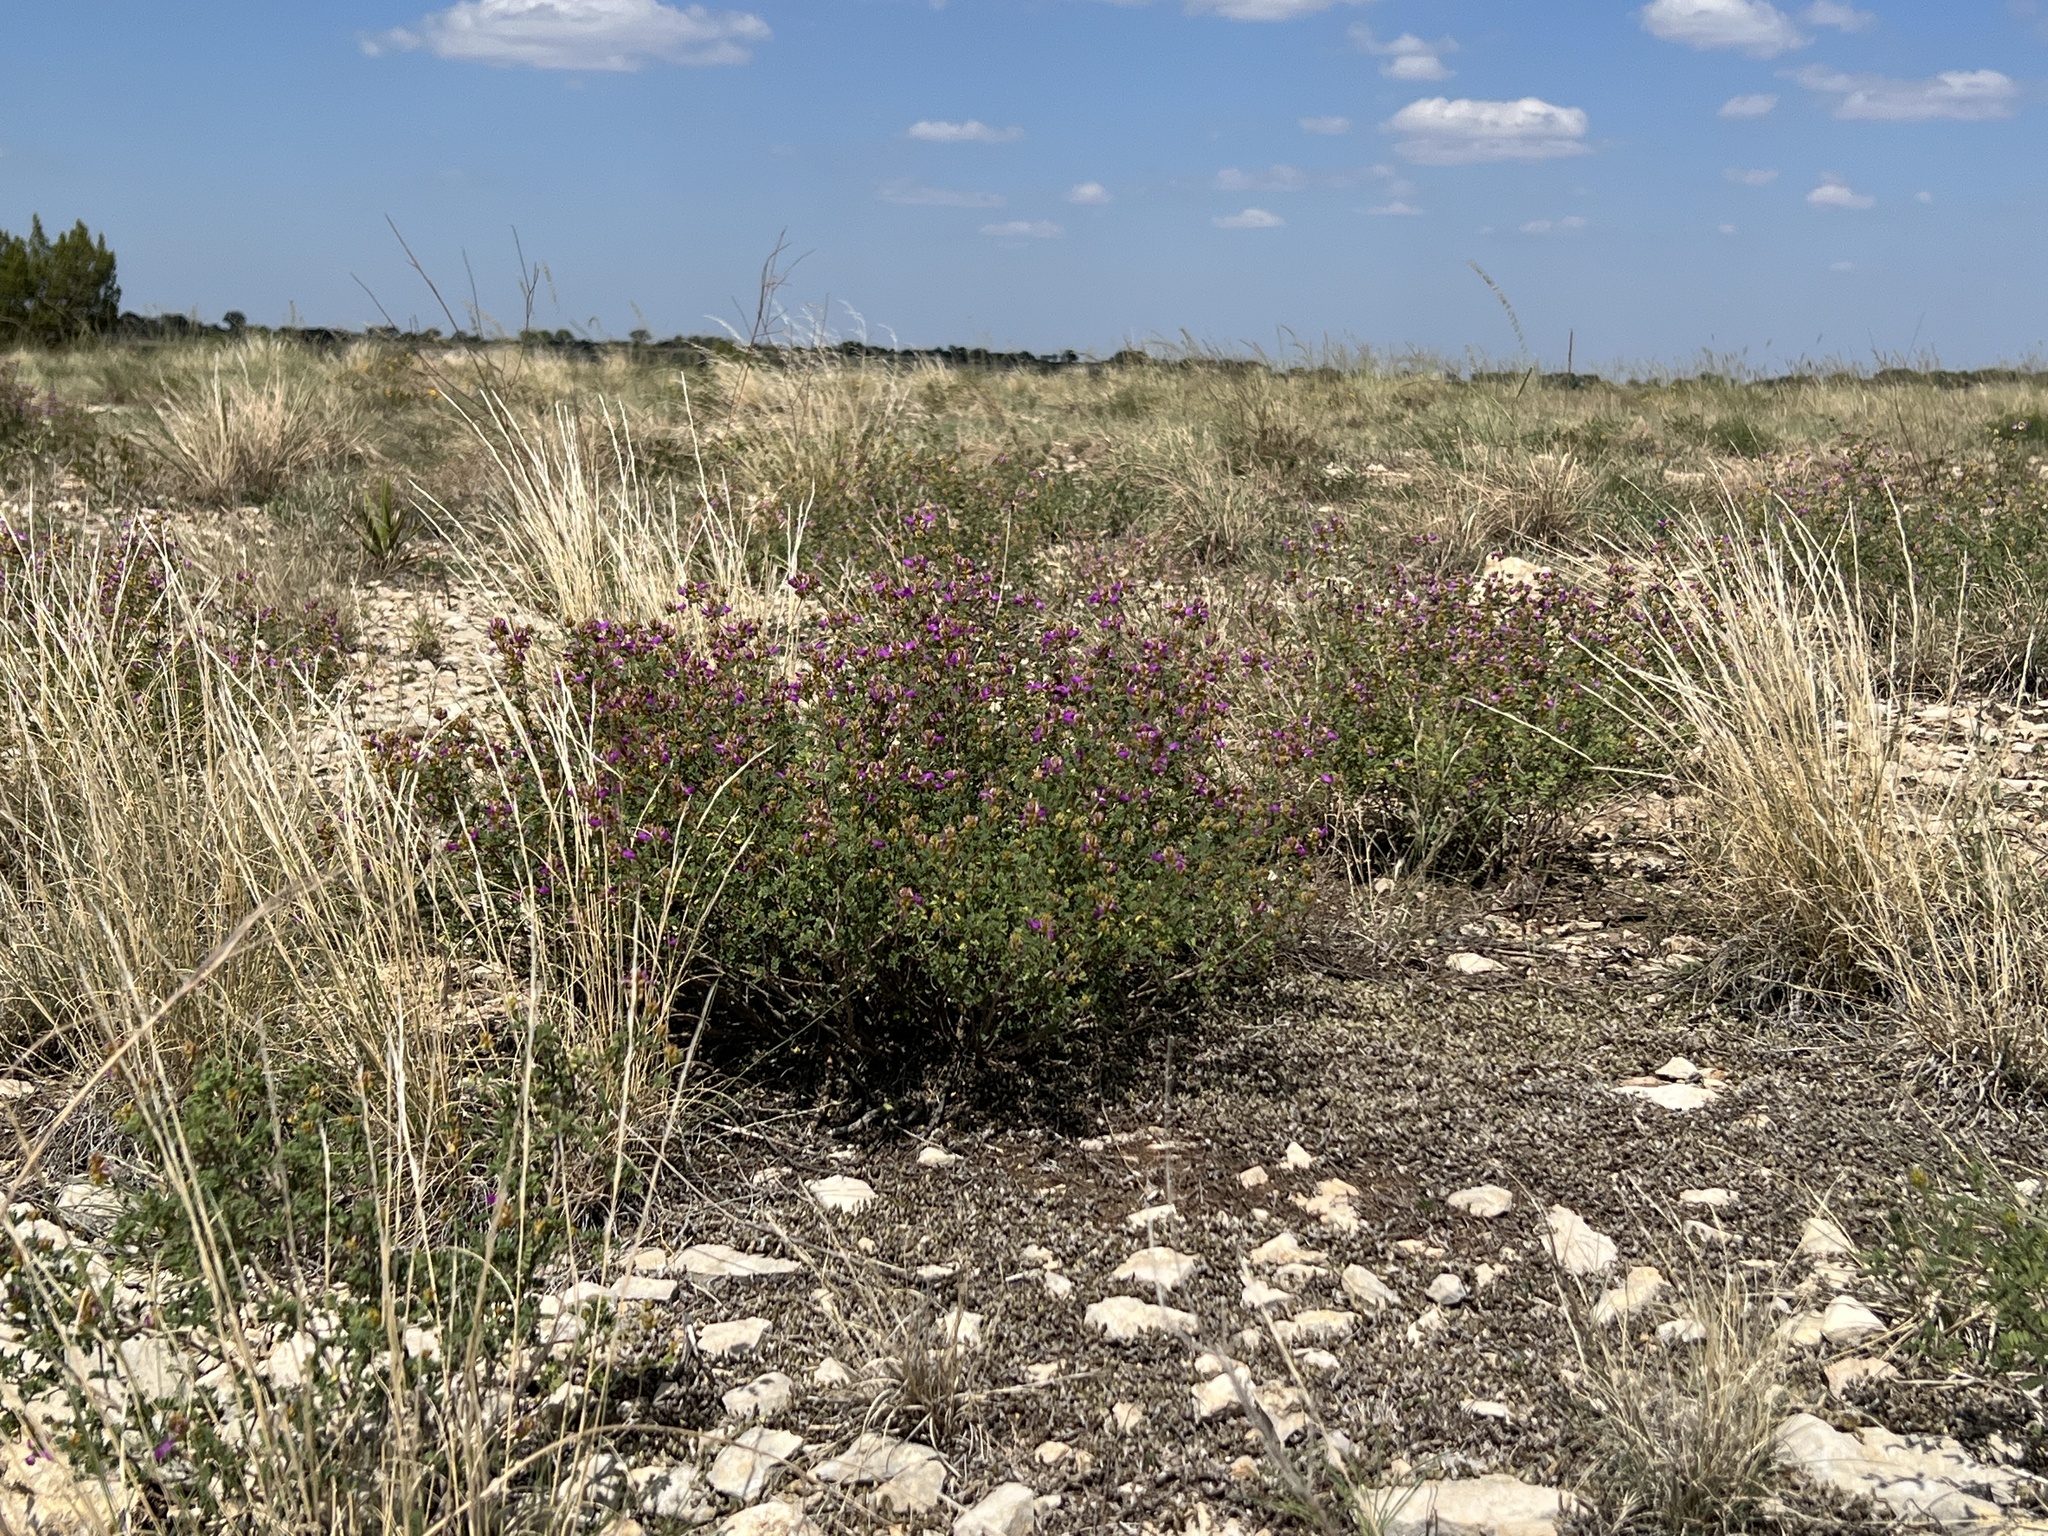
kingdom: Plantae
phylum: Tracheophyta
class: Magnoliopsida
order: Fabales
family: Fabaceae
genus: Dalea
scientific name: Dalea frutescens
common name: Black dalea
